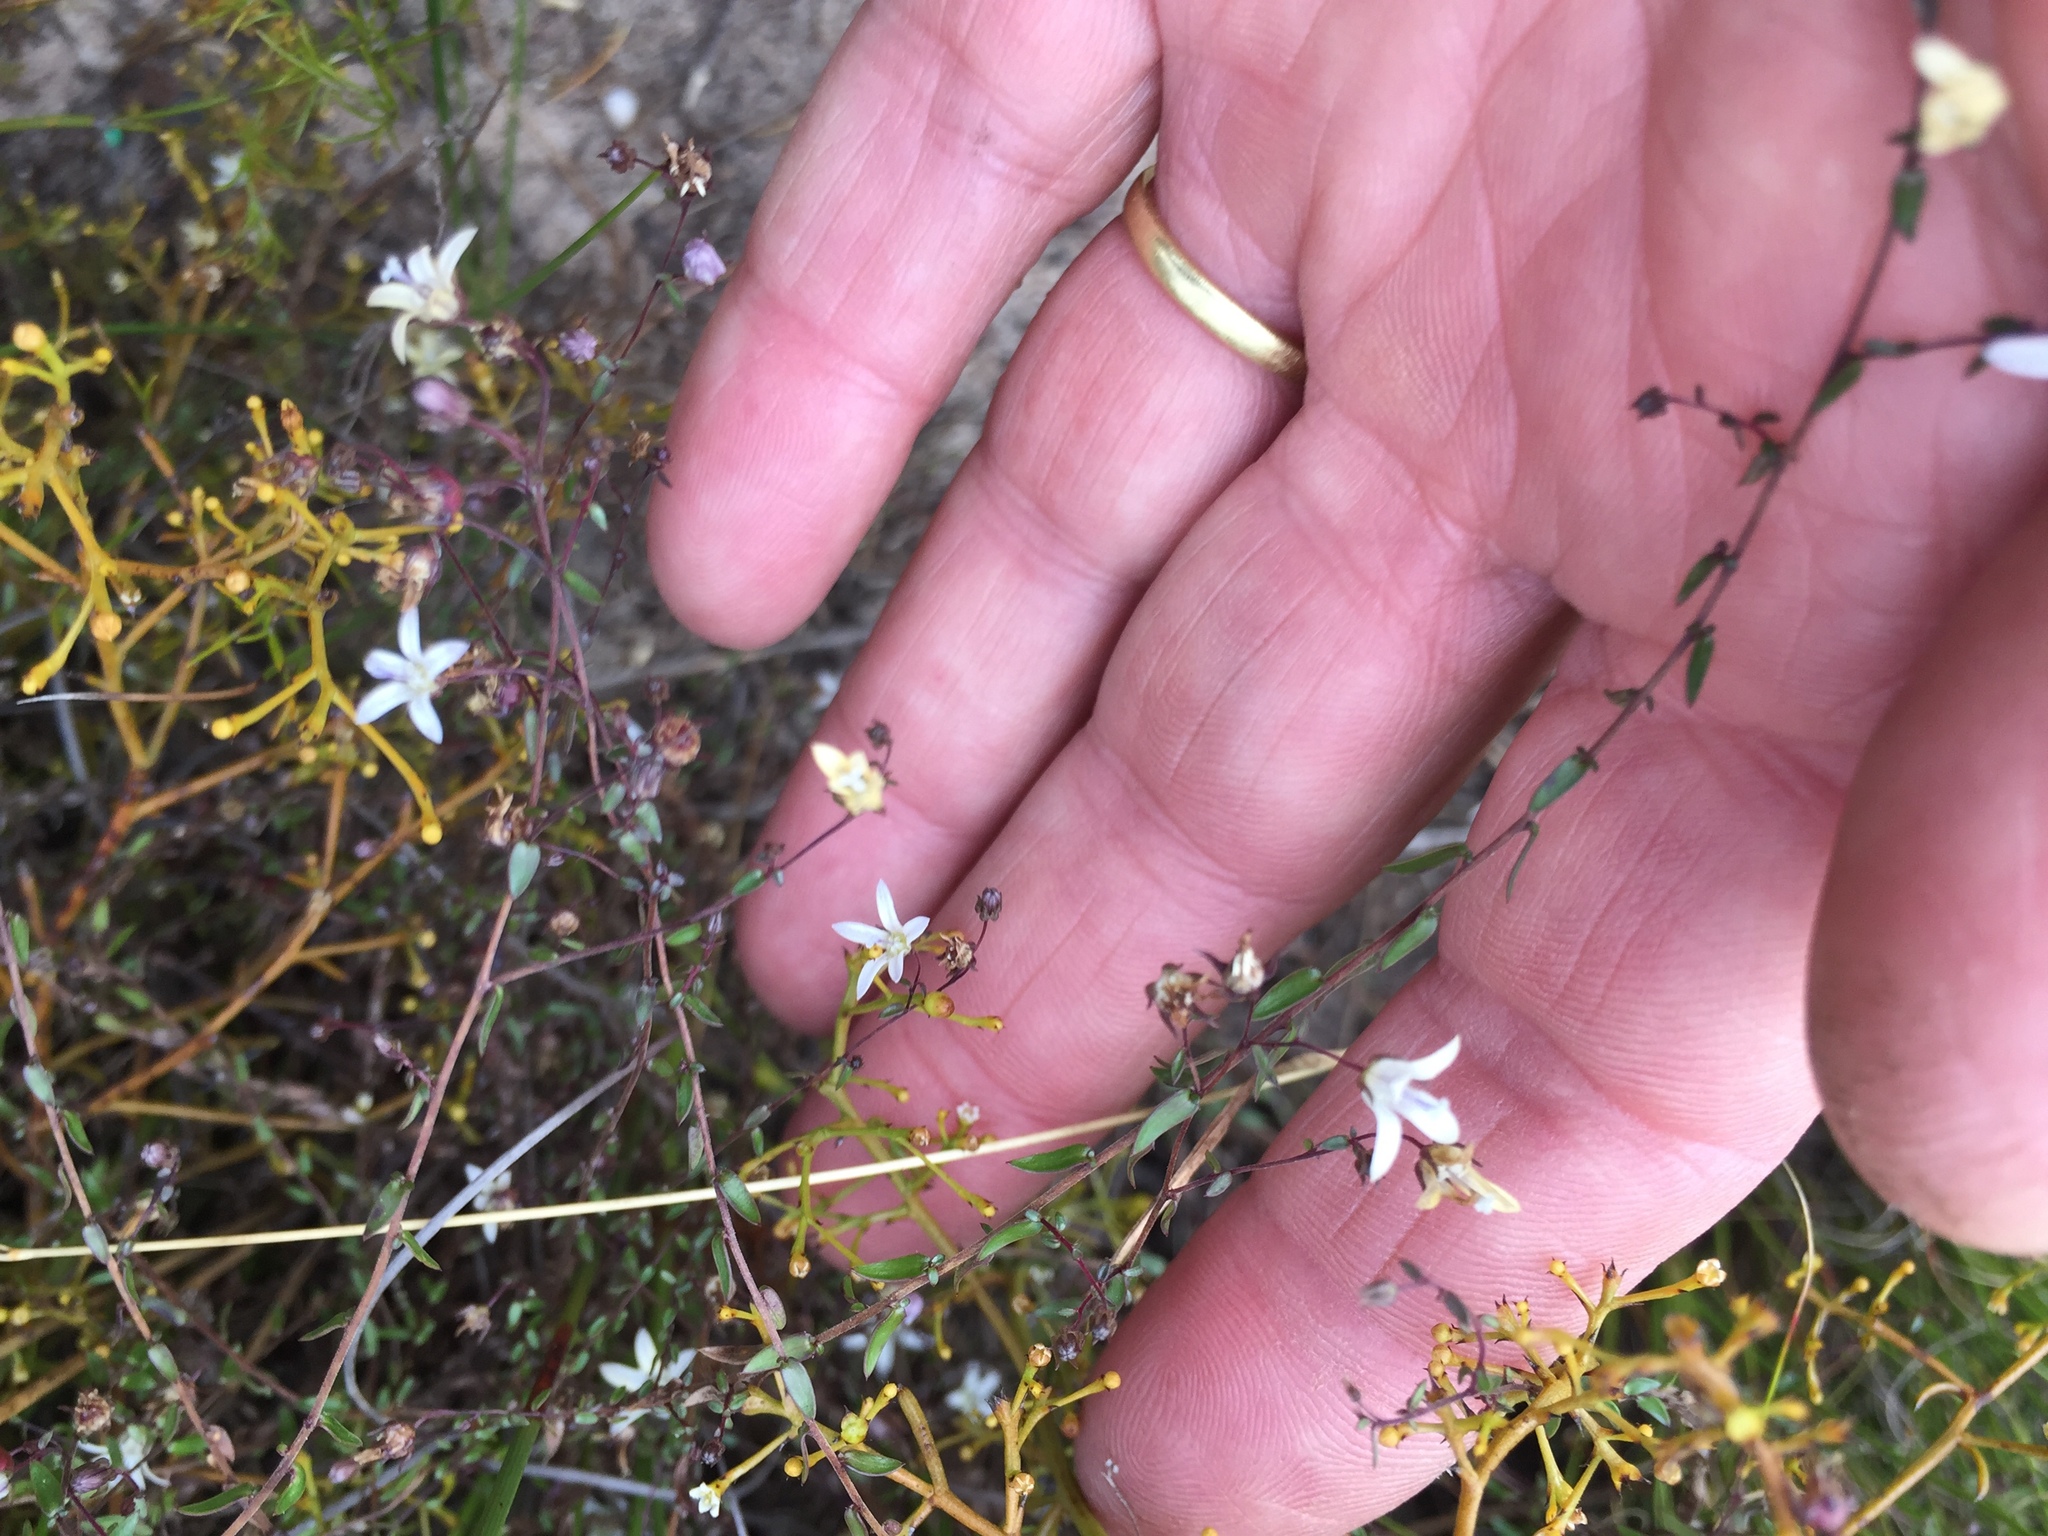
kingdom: Plantae
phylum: Tracheophyta
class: Magnoliopsida
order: Asterales
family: Campanulaceae
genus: Wahlenbergia
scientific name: Wahlenbergia parvifolia
